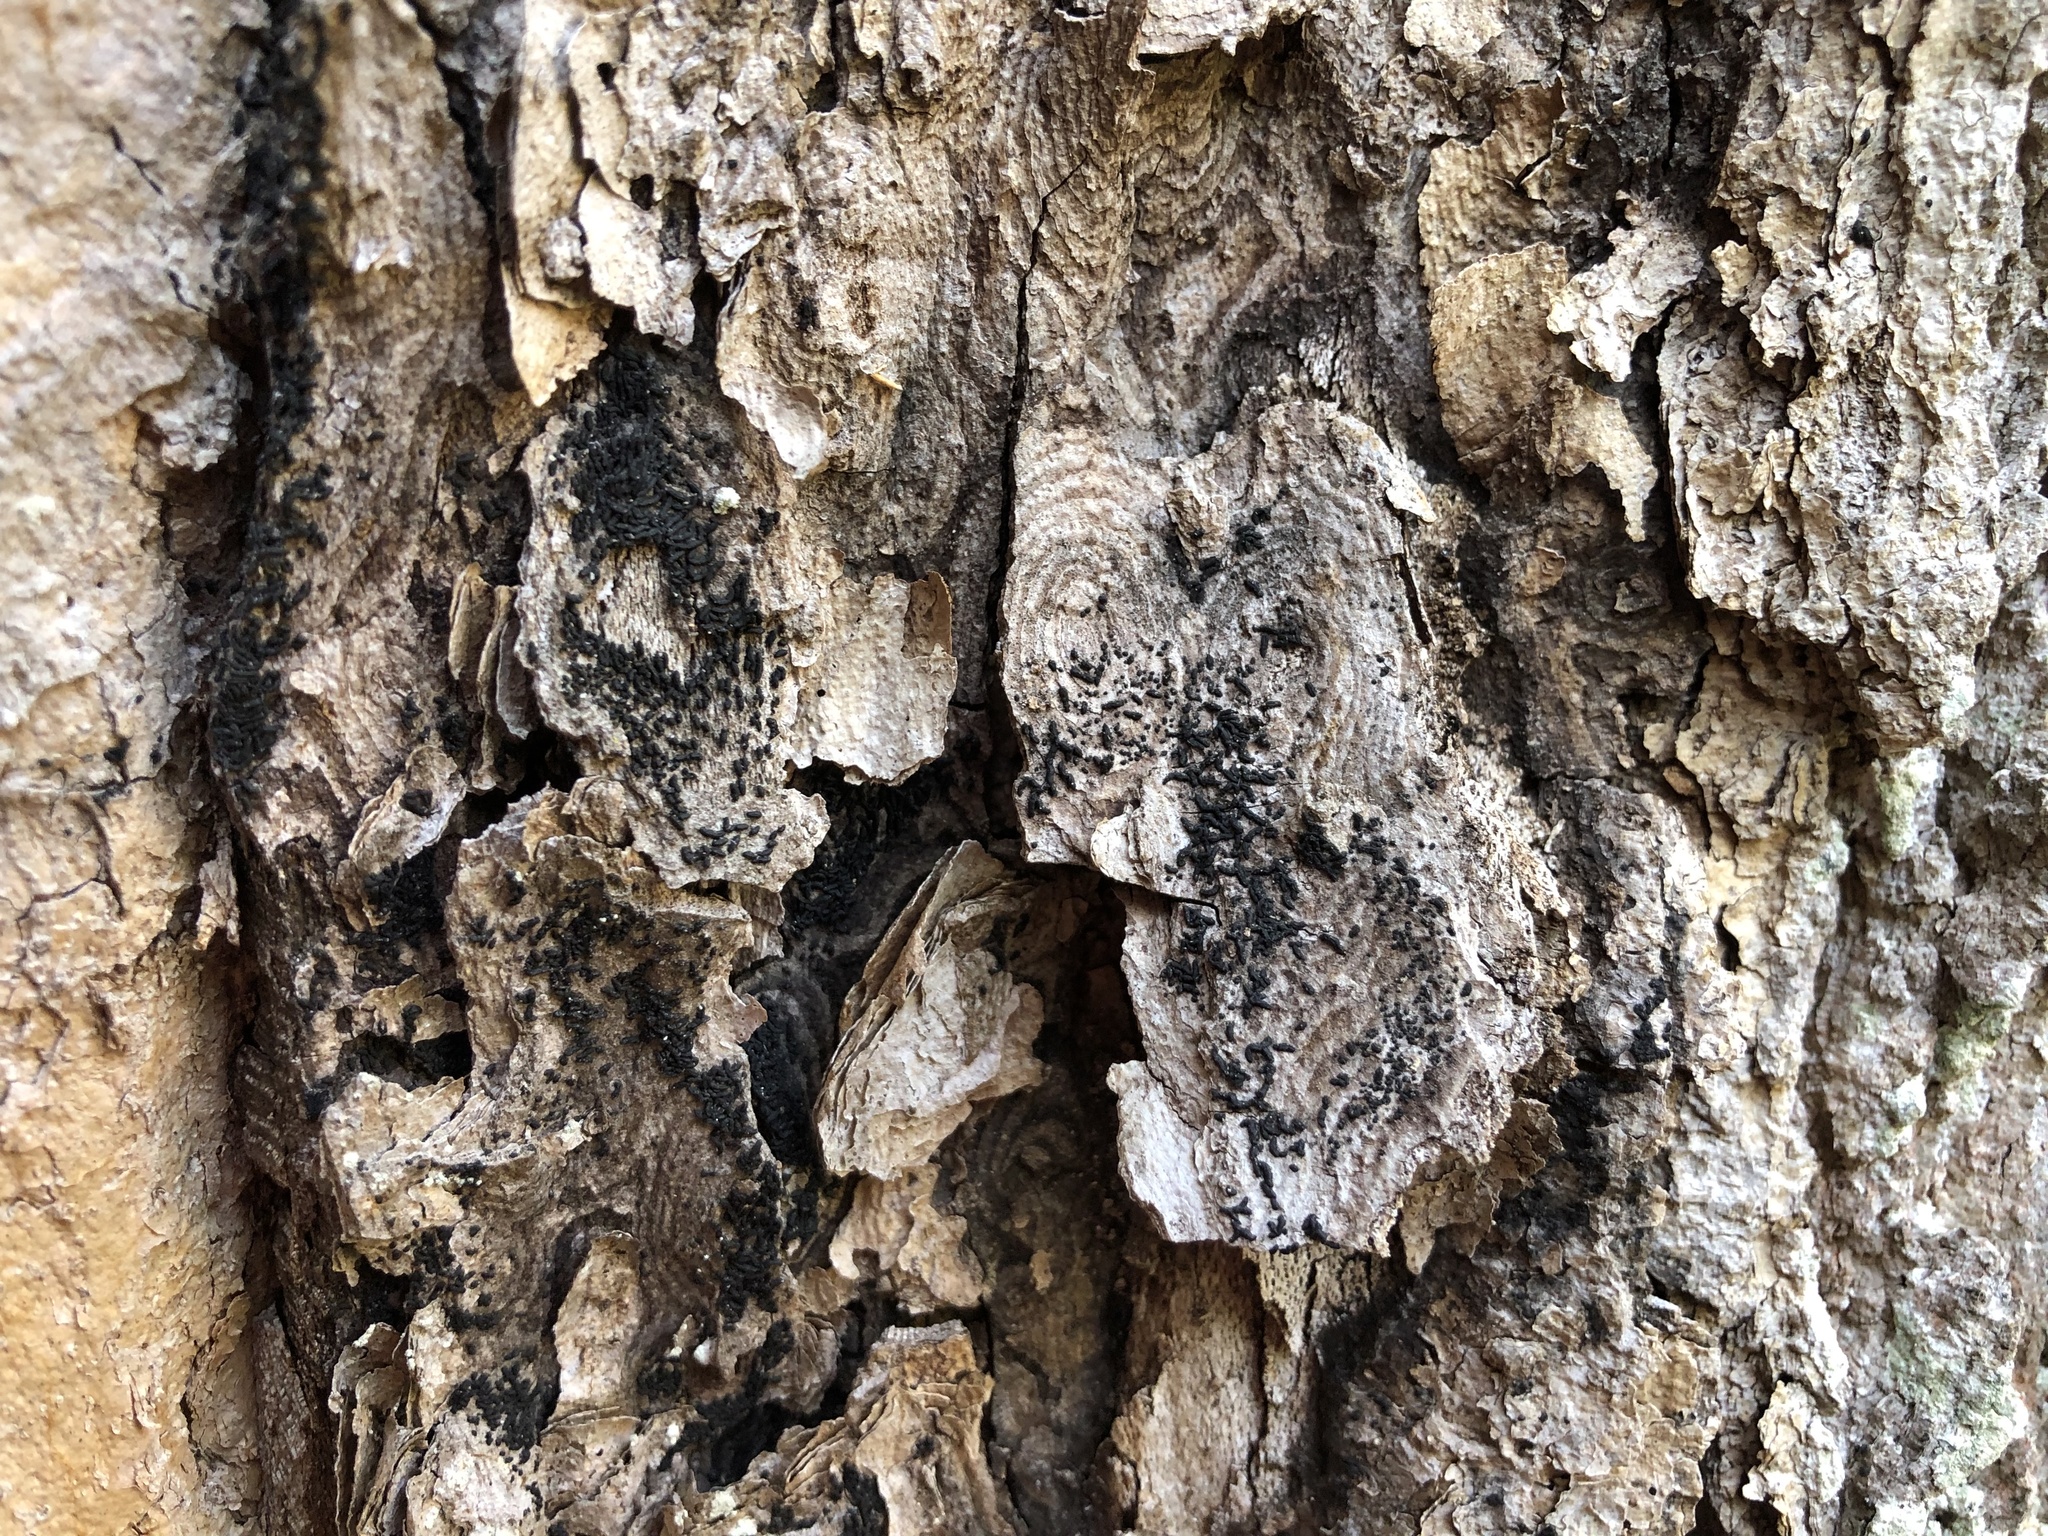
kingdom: Fungi
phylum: Ascomycota
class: Dothideomycetes
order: Hysteriales
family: Hysteriaceae
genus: Hysterium
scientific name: Hysterium pulicare
